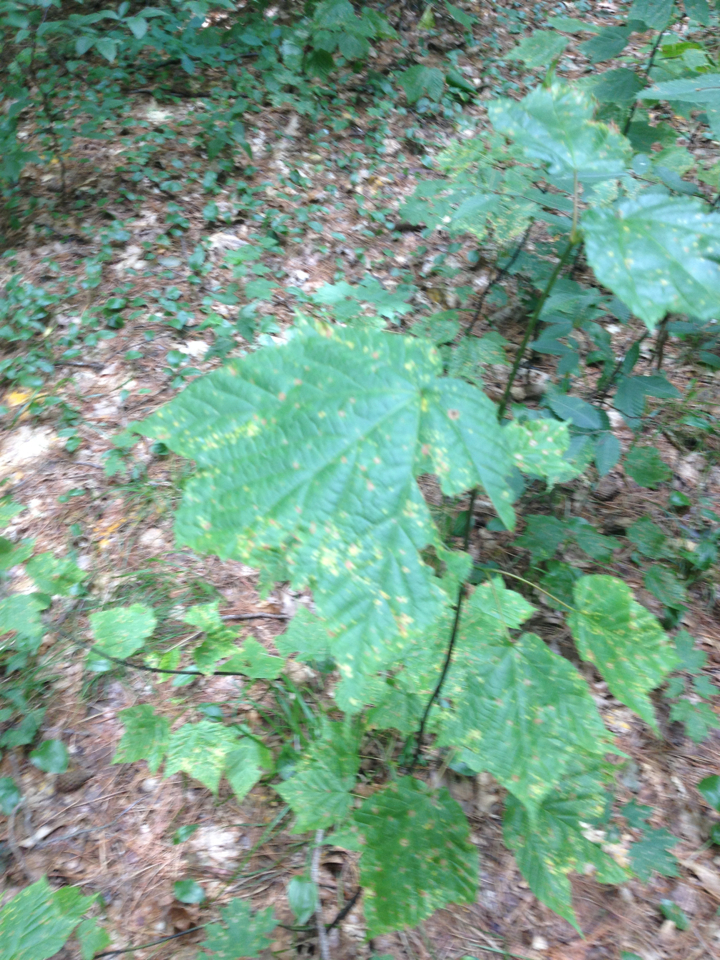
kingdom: Plantae
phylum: Tracheophyta
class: Magnoliopsida
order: Sapindales
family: Sapindaceae
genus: Acer
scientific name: Acer pensylvanicum
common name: Moosewood
